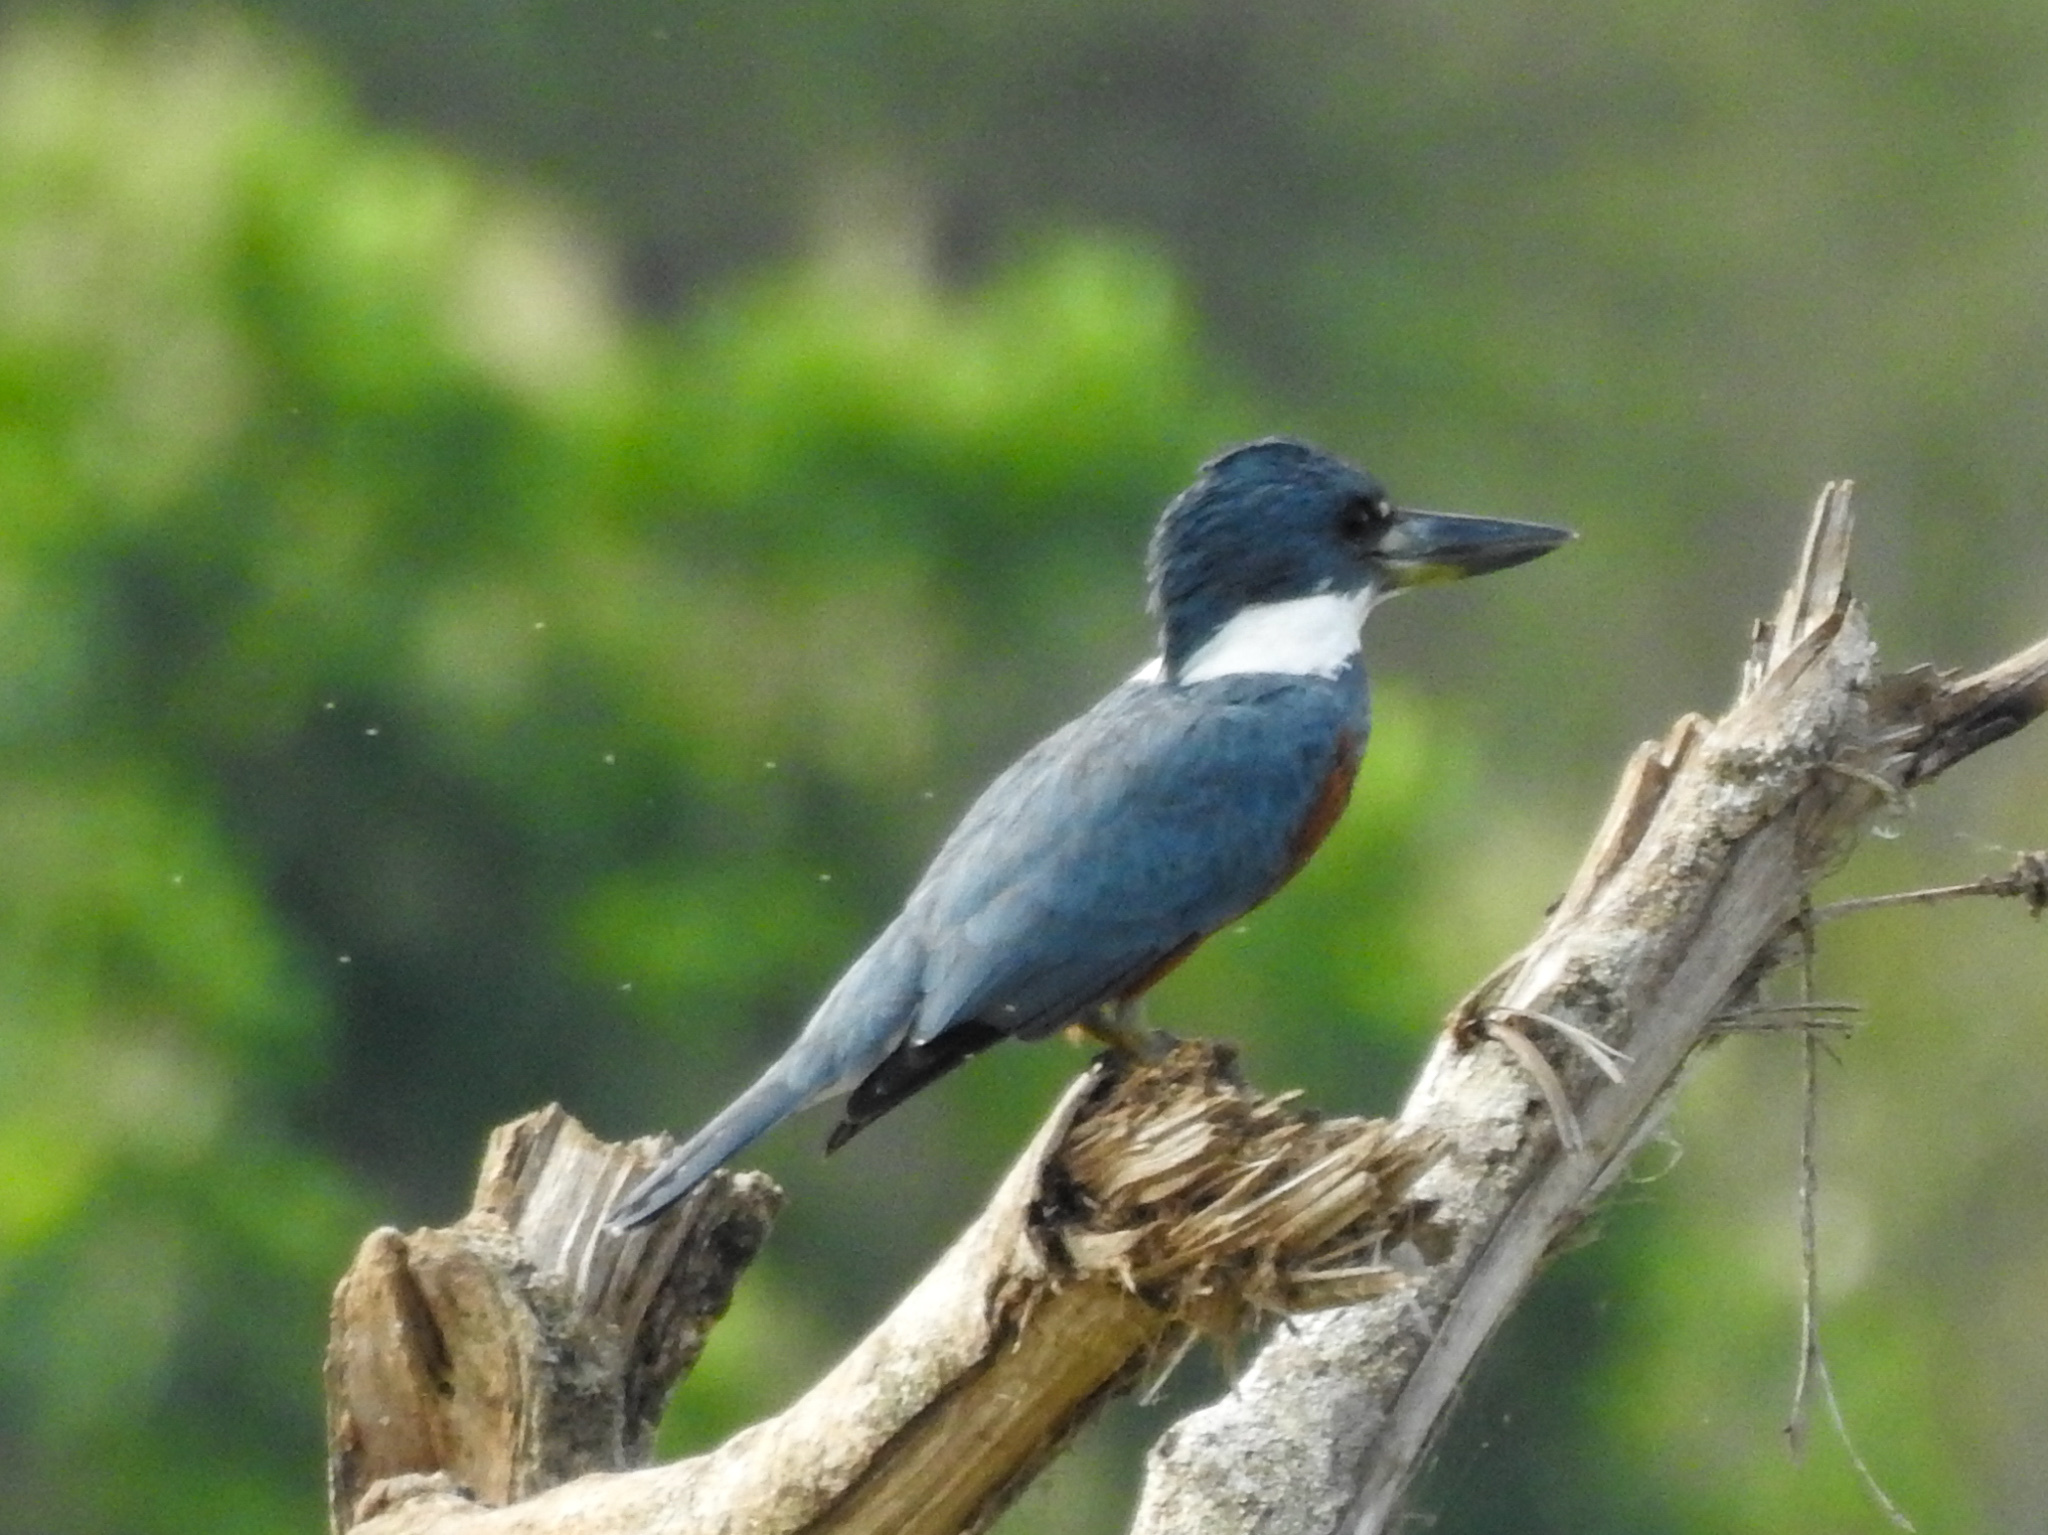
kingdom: Animalia
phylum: Chordata
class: Aves
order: Coraciiformes
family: Alcedinidae
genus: Megaceryle
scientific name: Megaceryle torquata
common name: Ringed kingfisher
